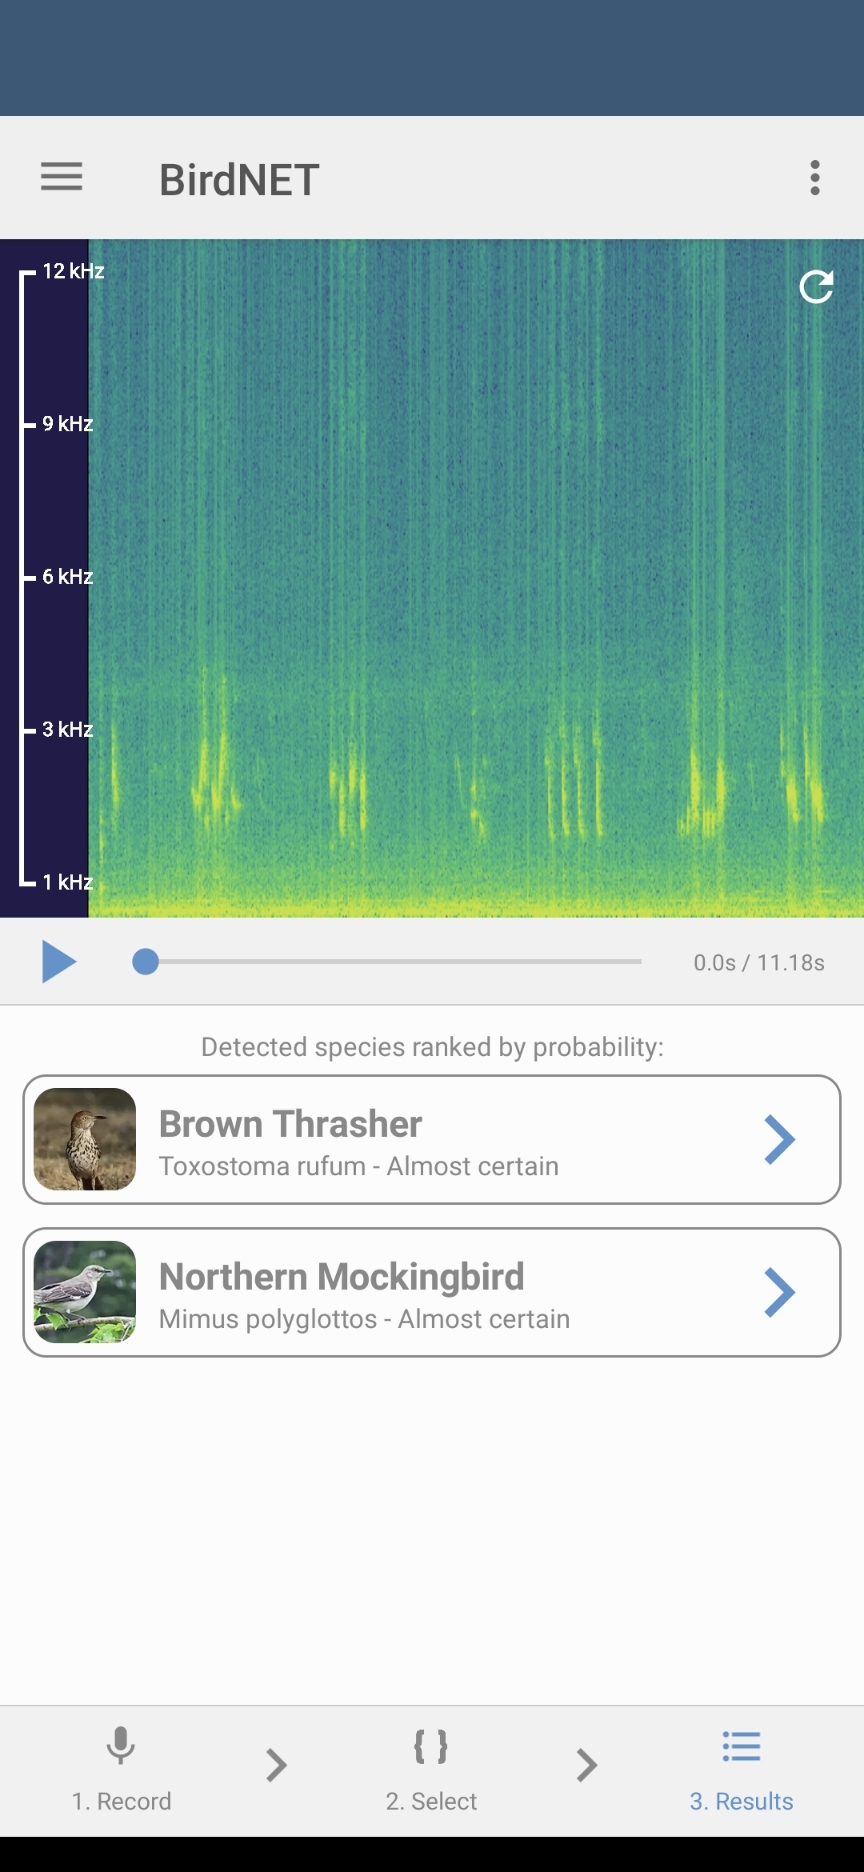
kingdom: Animalia
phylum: Chordata
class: Aves
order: Passeriformes
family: Mimidae
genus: Toxostoma
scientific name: Toxostoma rufum
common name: Brown thrasher
